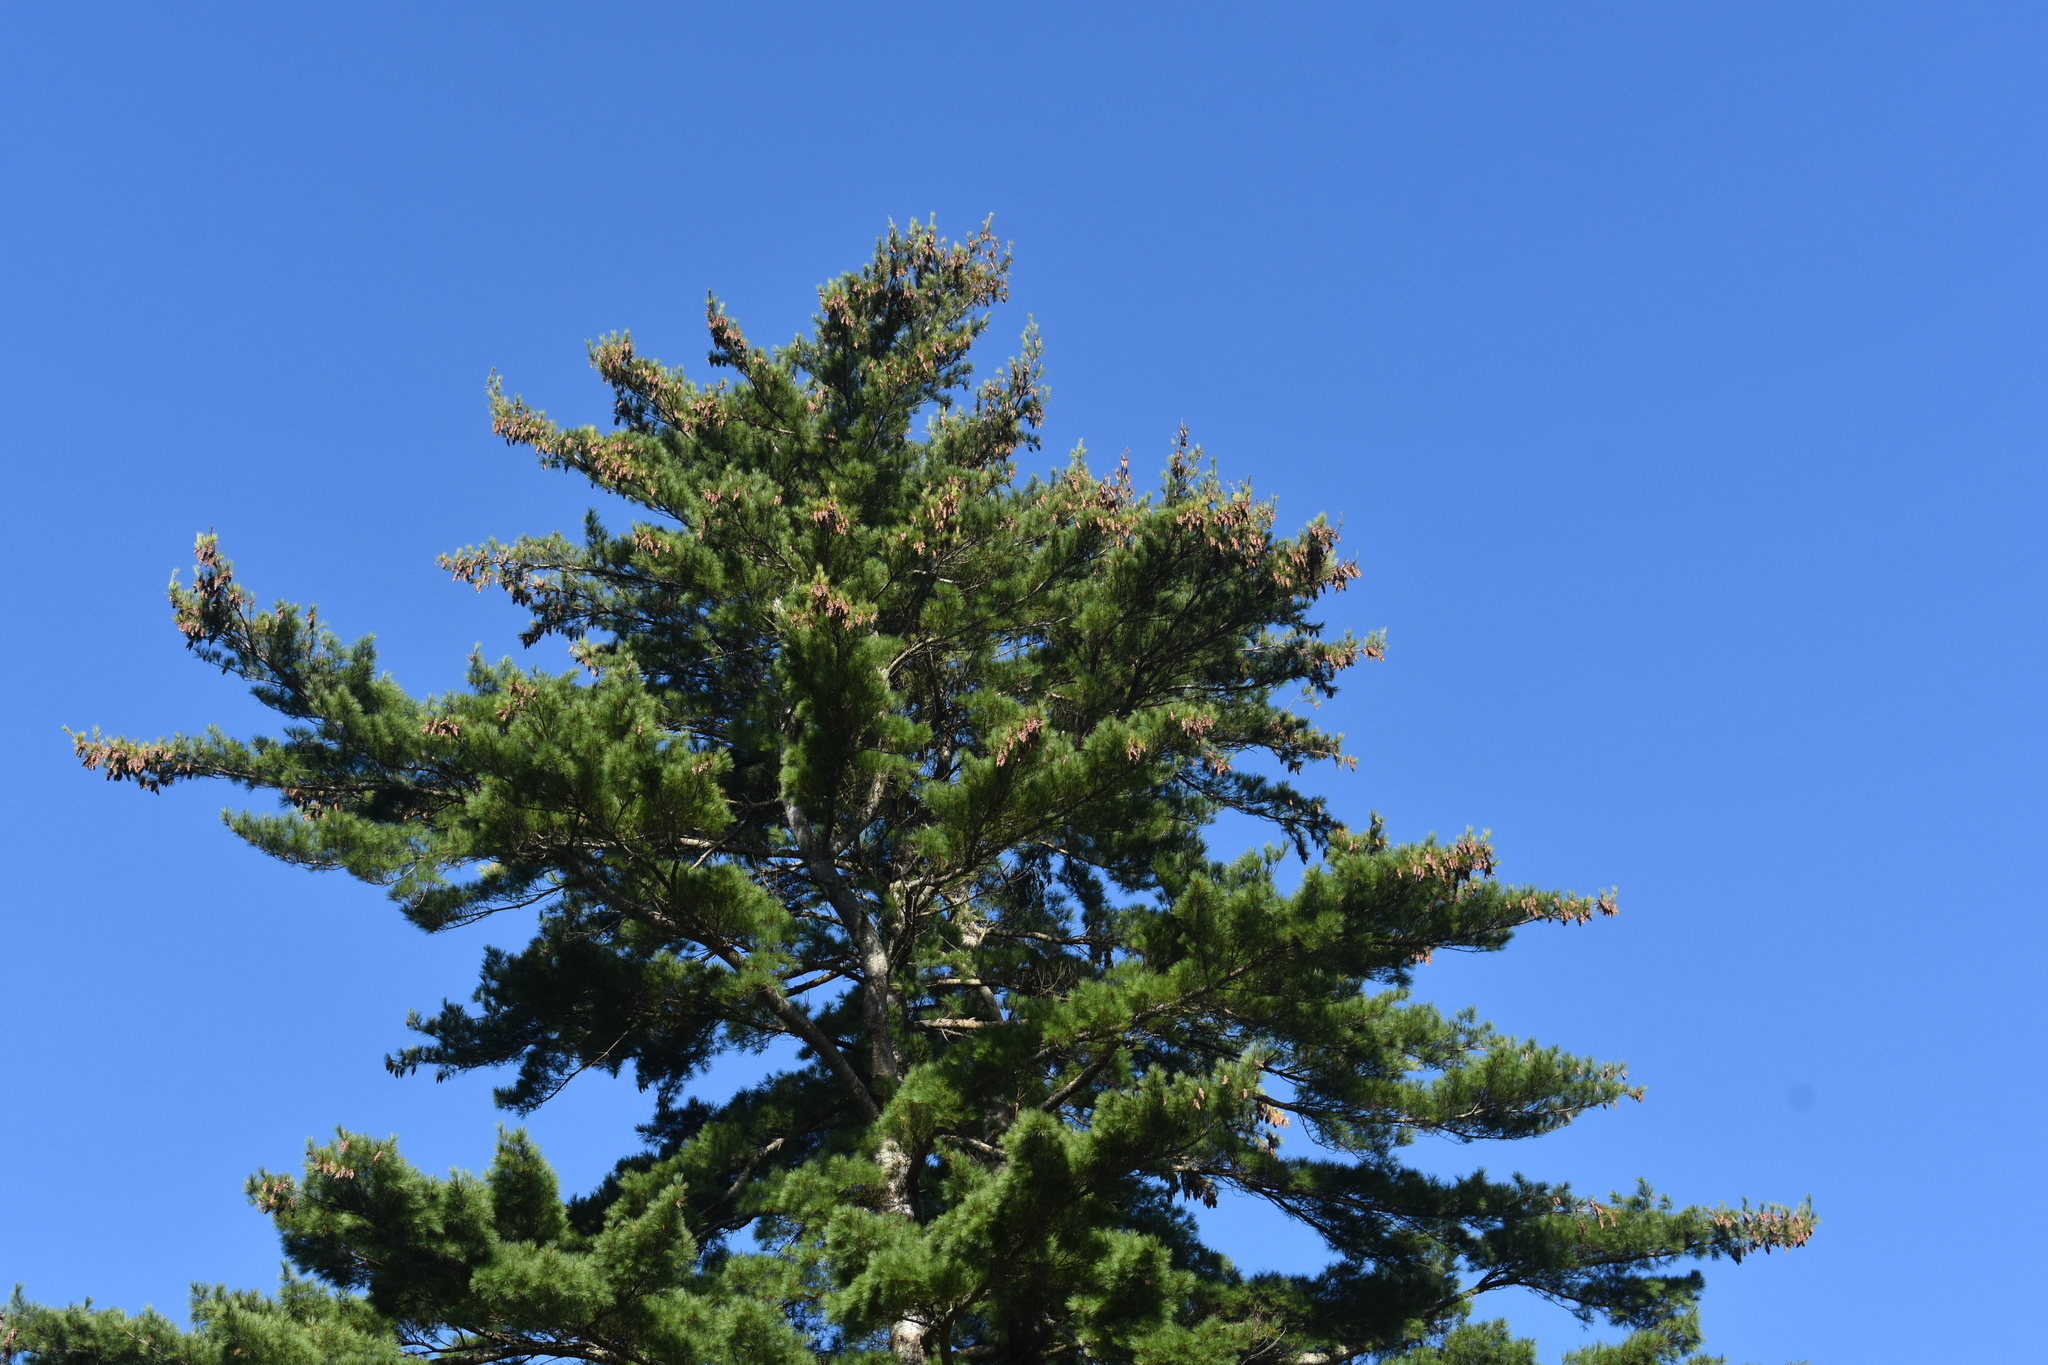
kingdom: Plantae
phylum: Tracheophyta
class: Pinopsida
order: Pinales
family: Pinaceae
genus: Pinus
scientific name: Pinus strobus
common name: Weymouth pine
